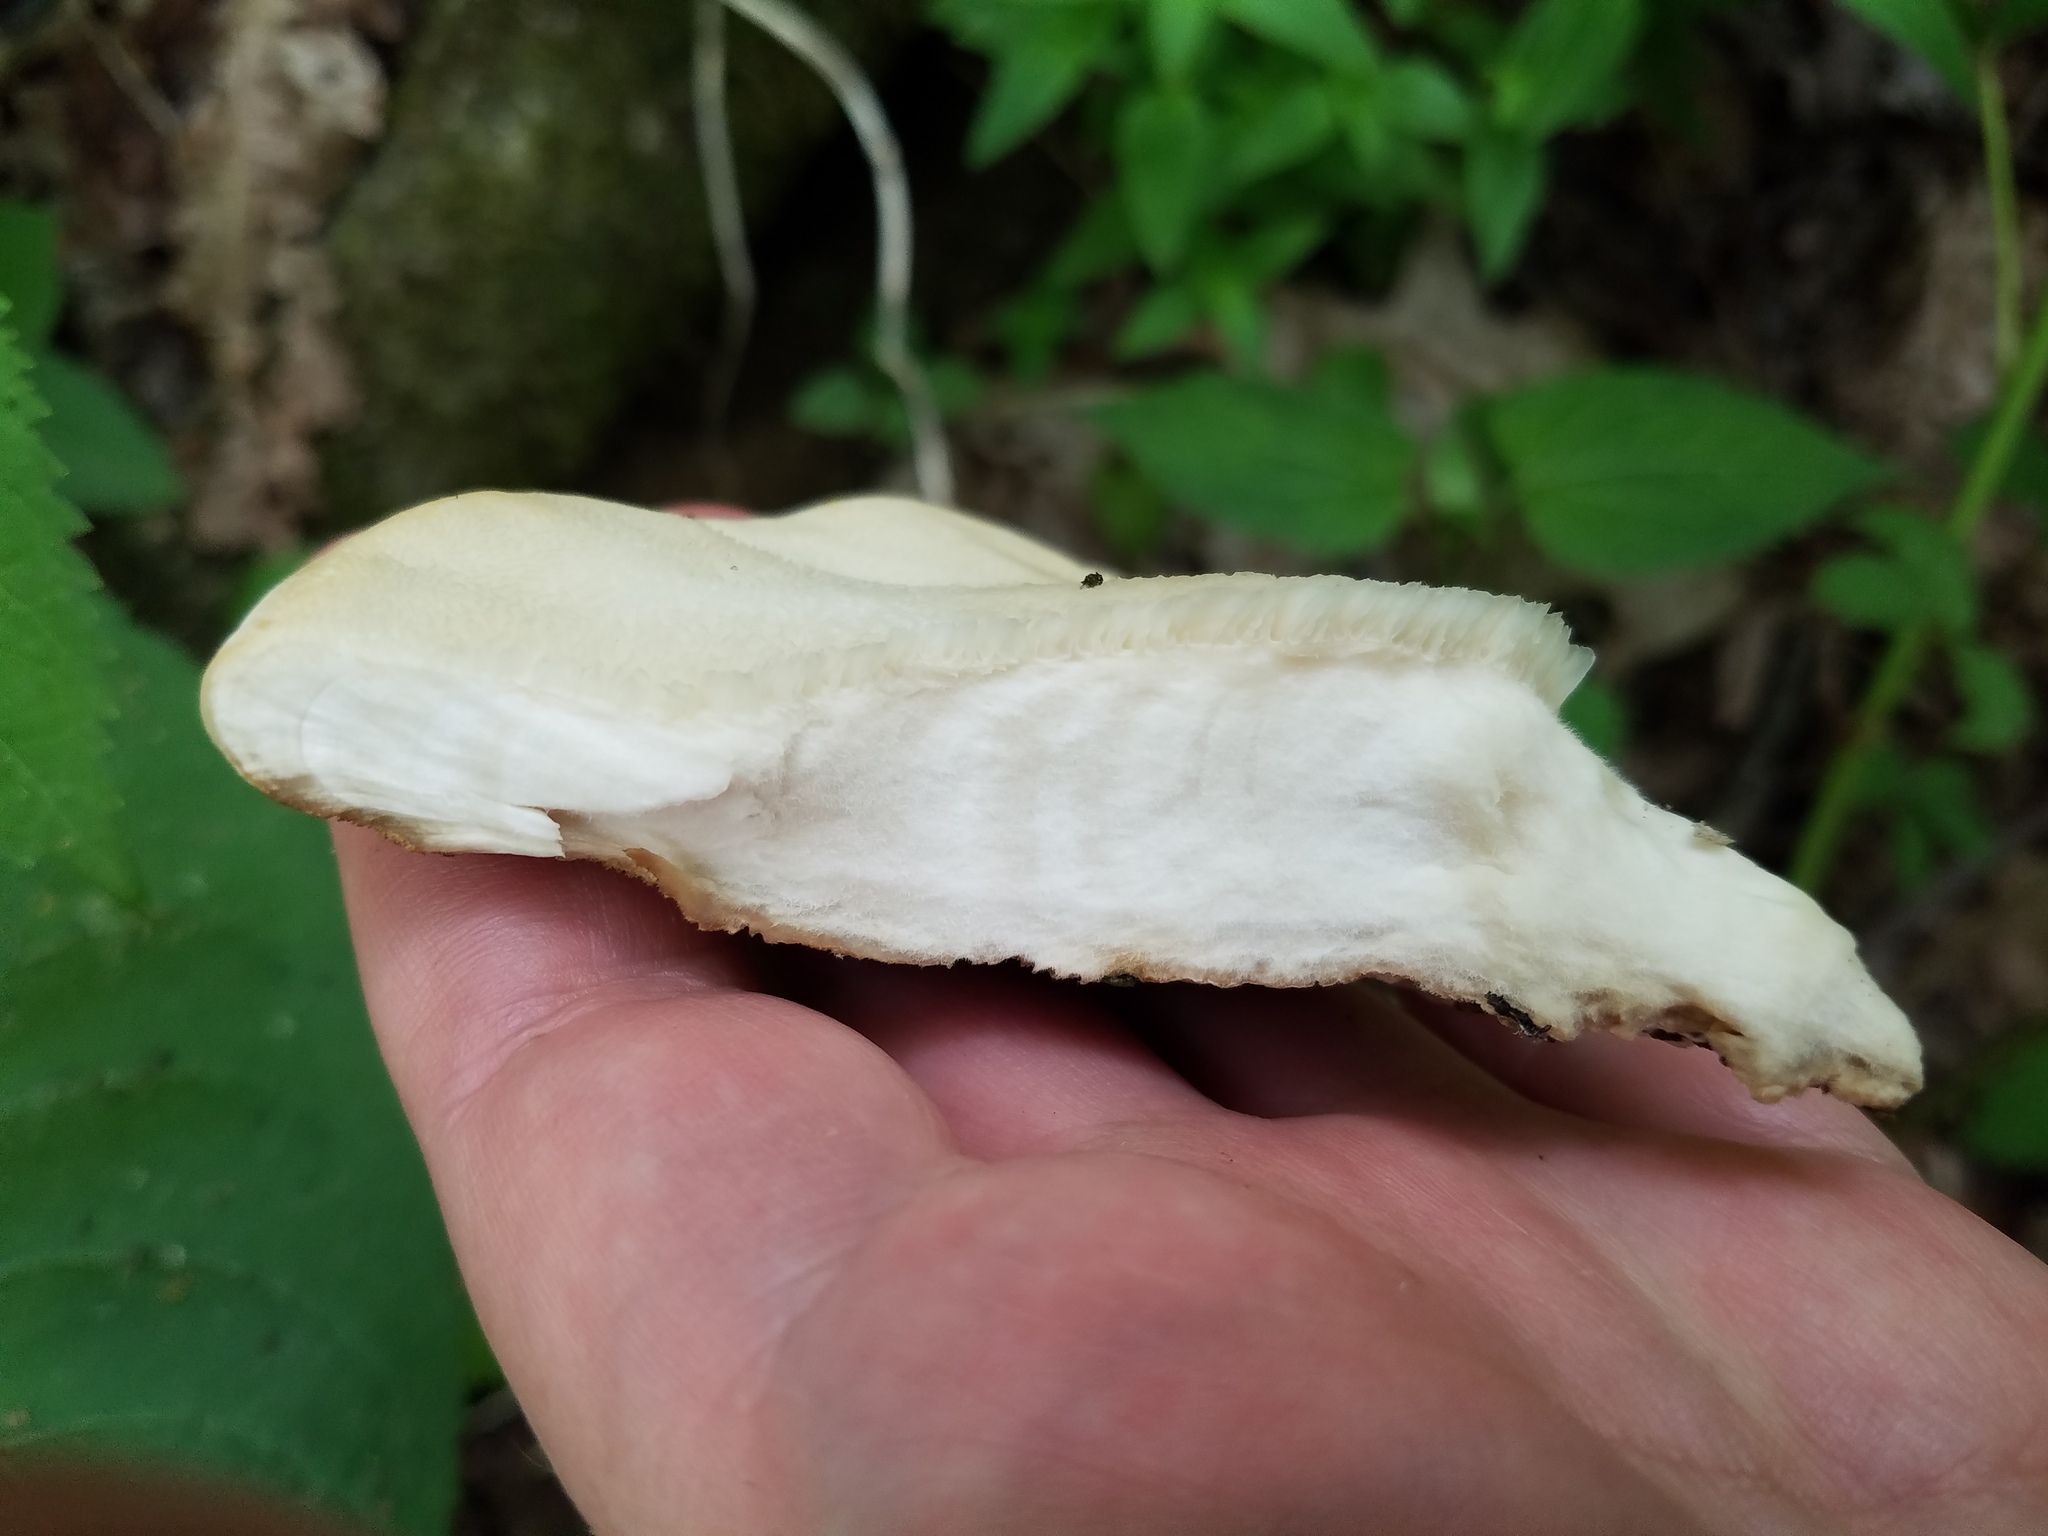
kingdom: Fungi
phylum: Basidiomycota
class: Agaricomycetes
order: Russulales
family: Bondarzewiaceae
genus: Bondarzewia
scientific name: Bondarzewia berkeleyi
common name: Berkeley's polypore
